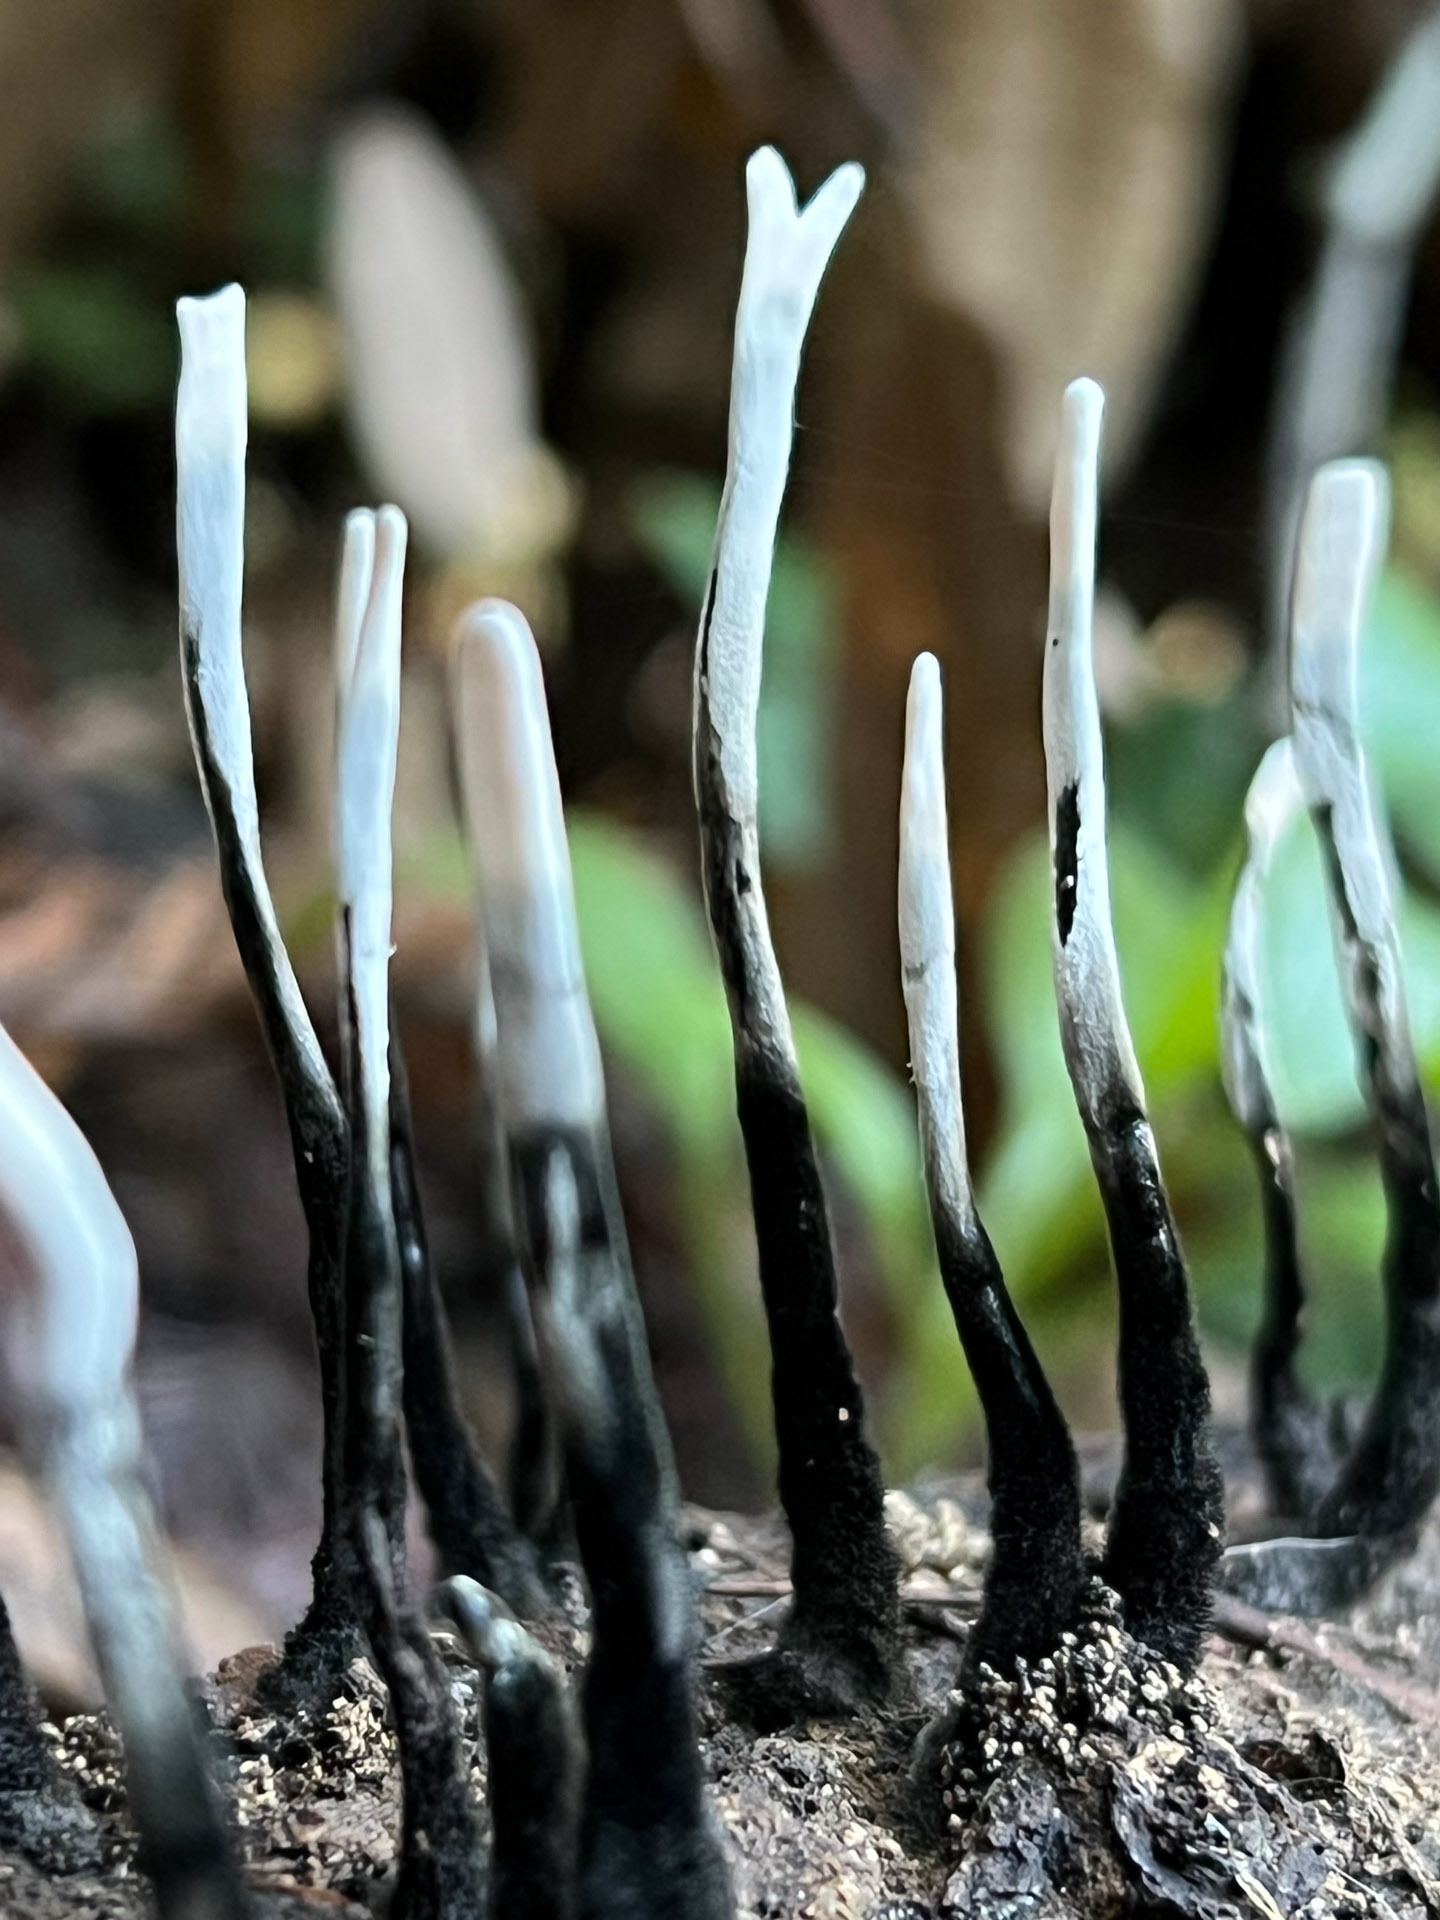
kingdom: Fungi
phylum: Ascomycota
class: Sordariomycetes
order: Xylariales
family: Xylariaceae
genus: Xylaria
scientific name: Xylaria hypoxylon
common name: Candle-snuff fungus
